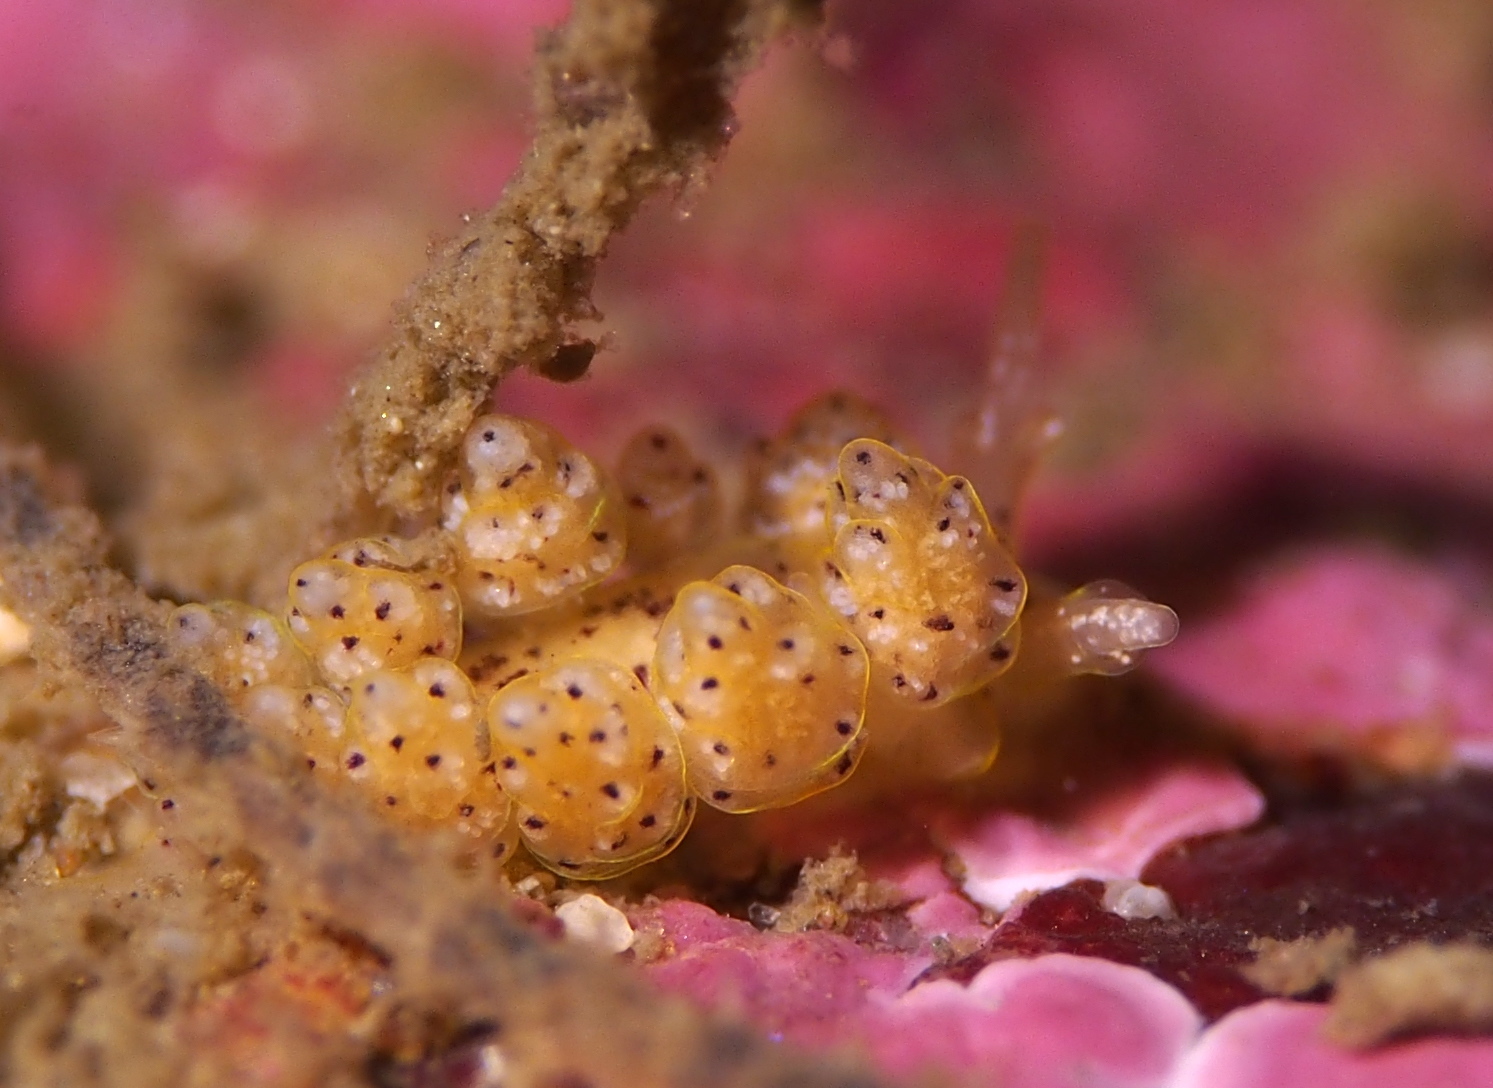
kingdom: Animalia
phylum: Mollusca
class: Gastropoda
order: Nudibranchia
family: Dotidae
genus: Doto
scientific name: Doto dunnei
